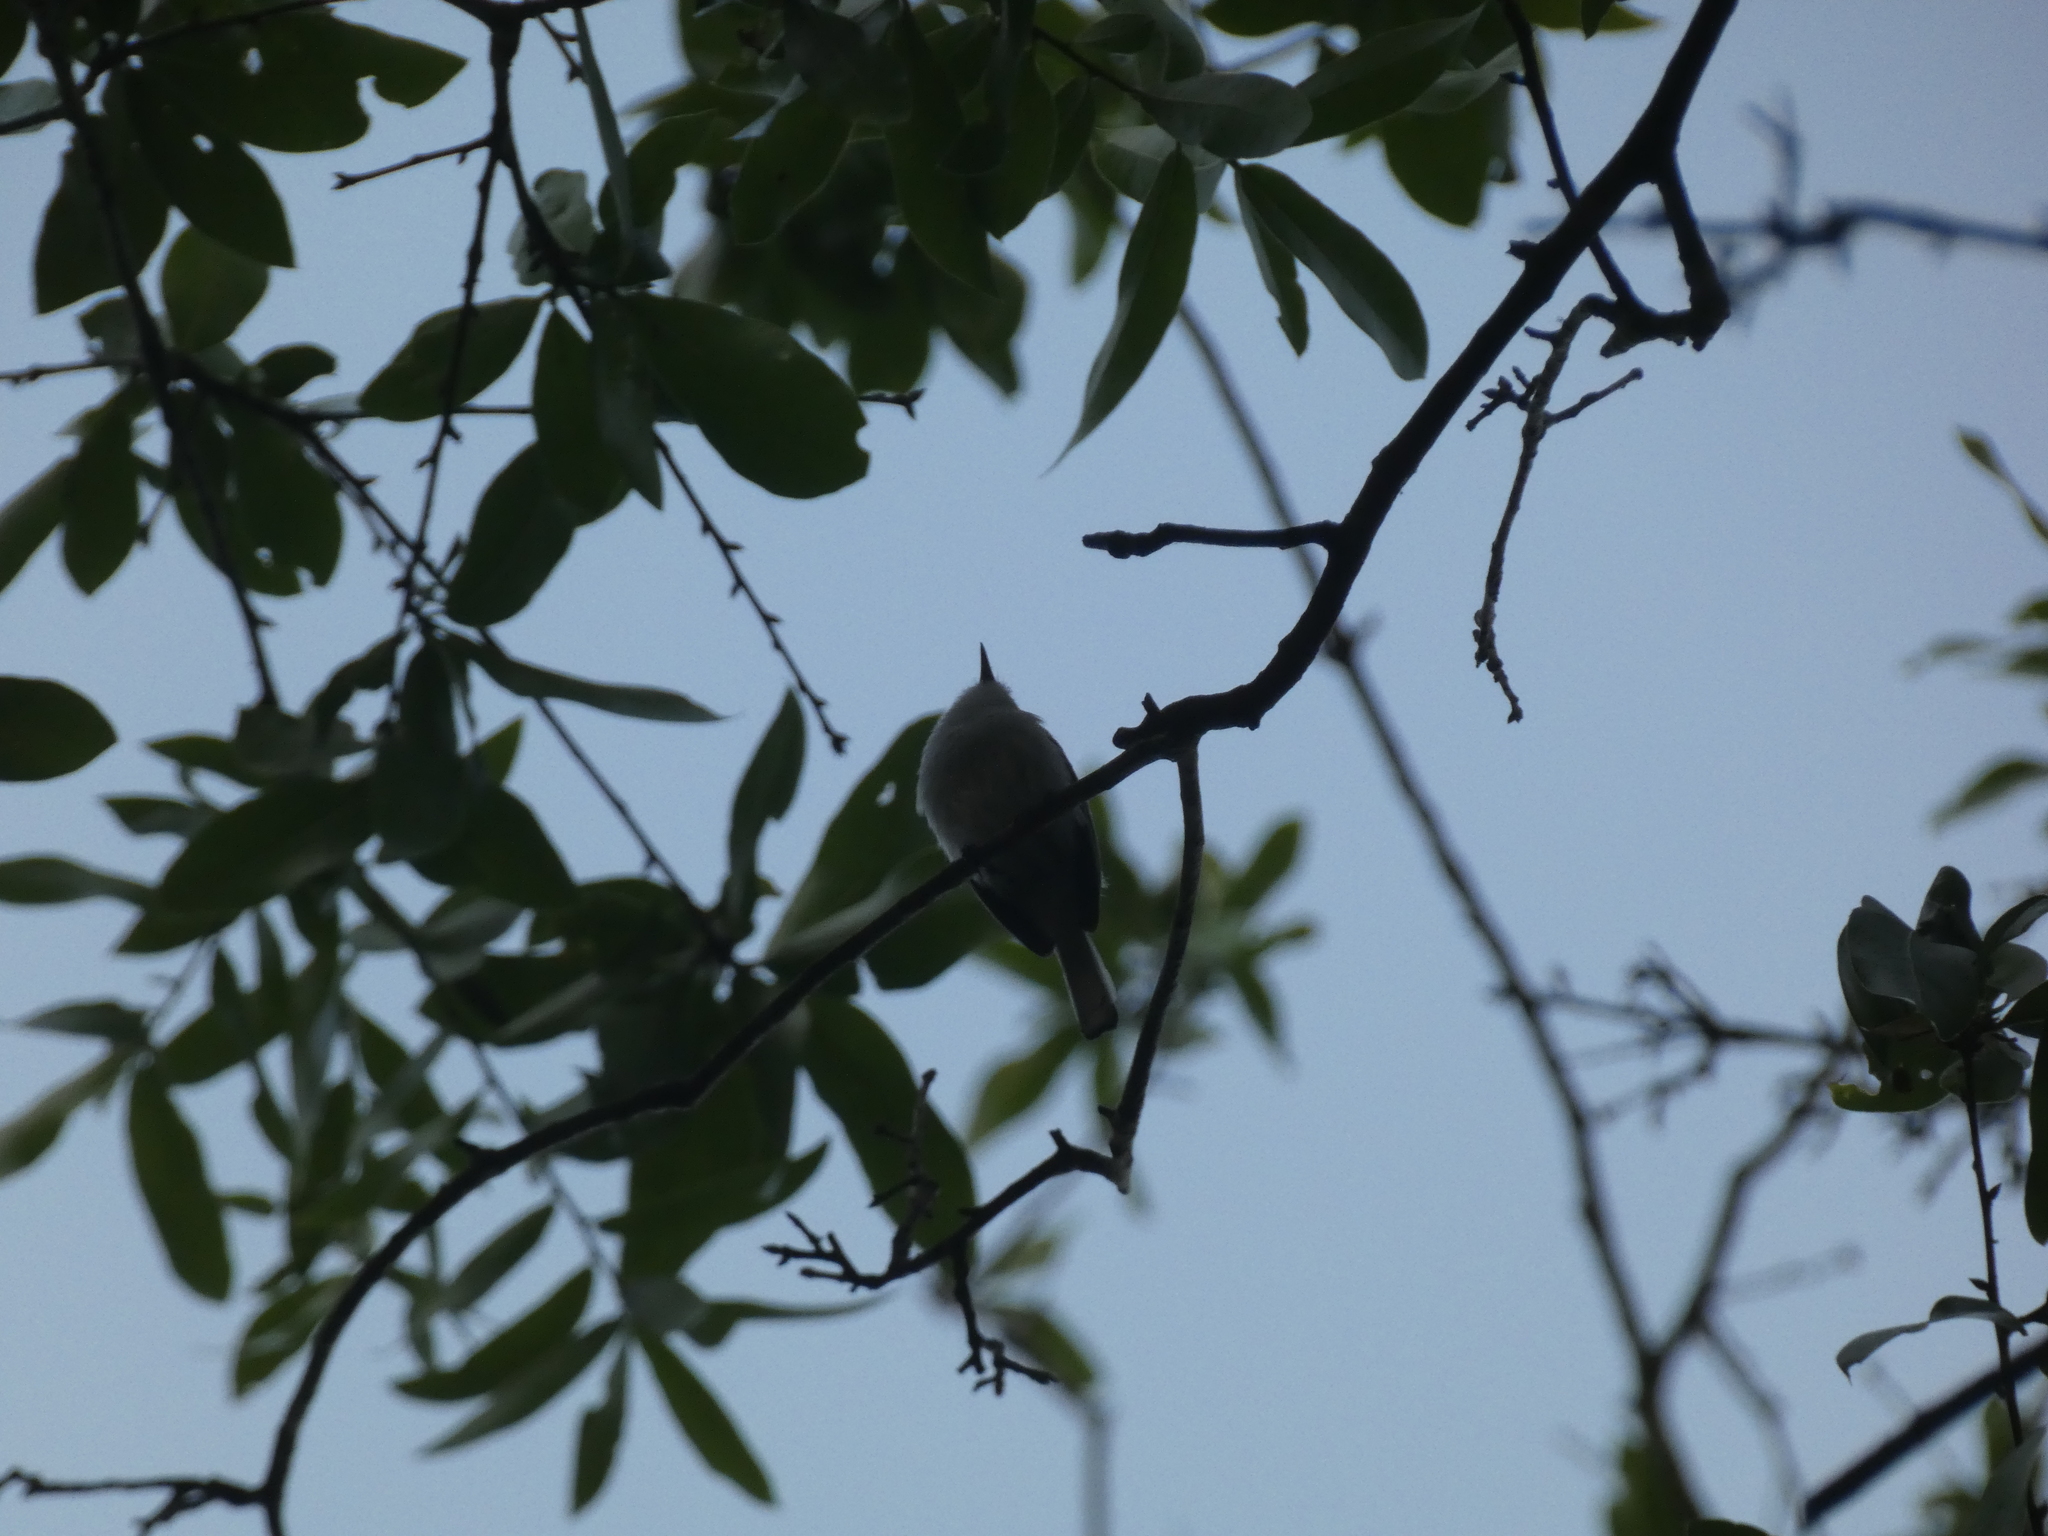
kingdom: Animalia
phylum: Chordata
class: Aves
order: Passeriformes
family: Polioptilidae
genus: Polioptila
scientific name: Polioptila caerulea
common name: Blue-gray gnatcatcher
